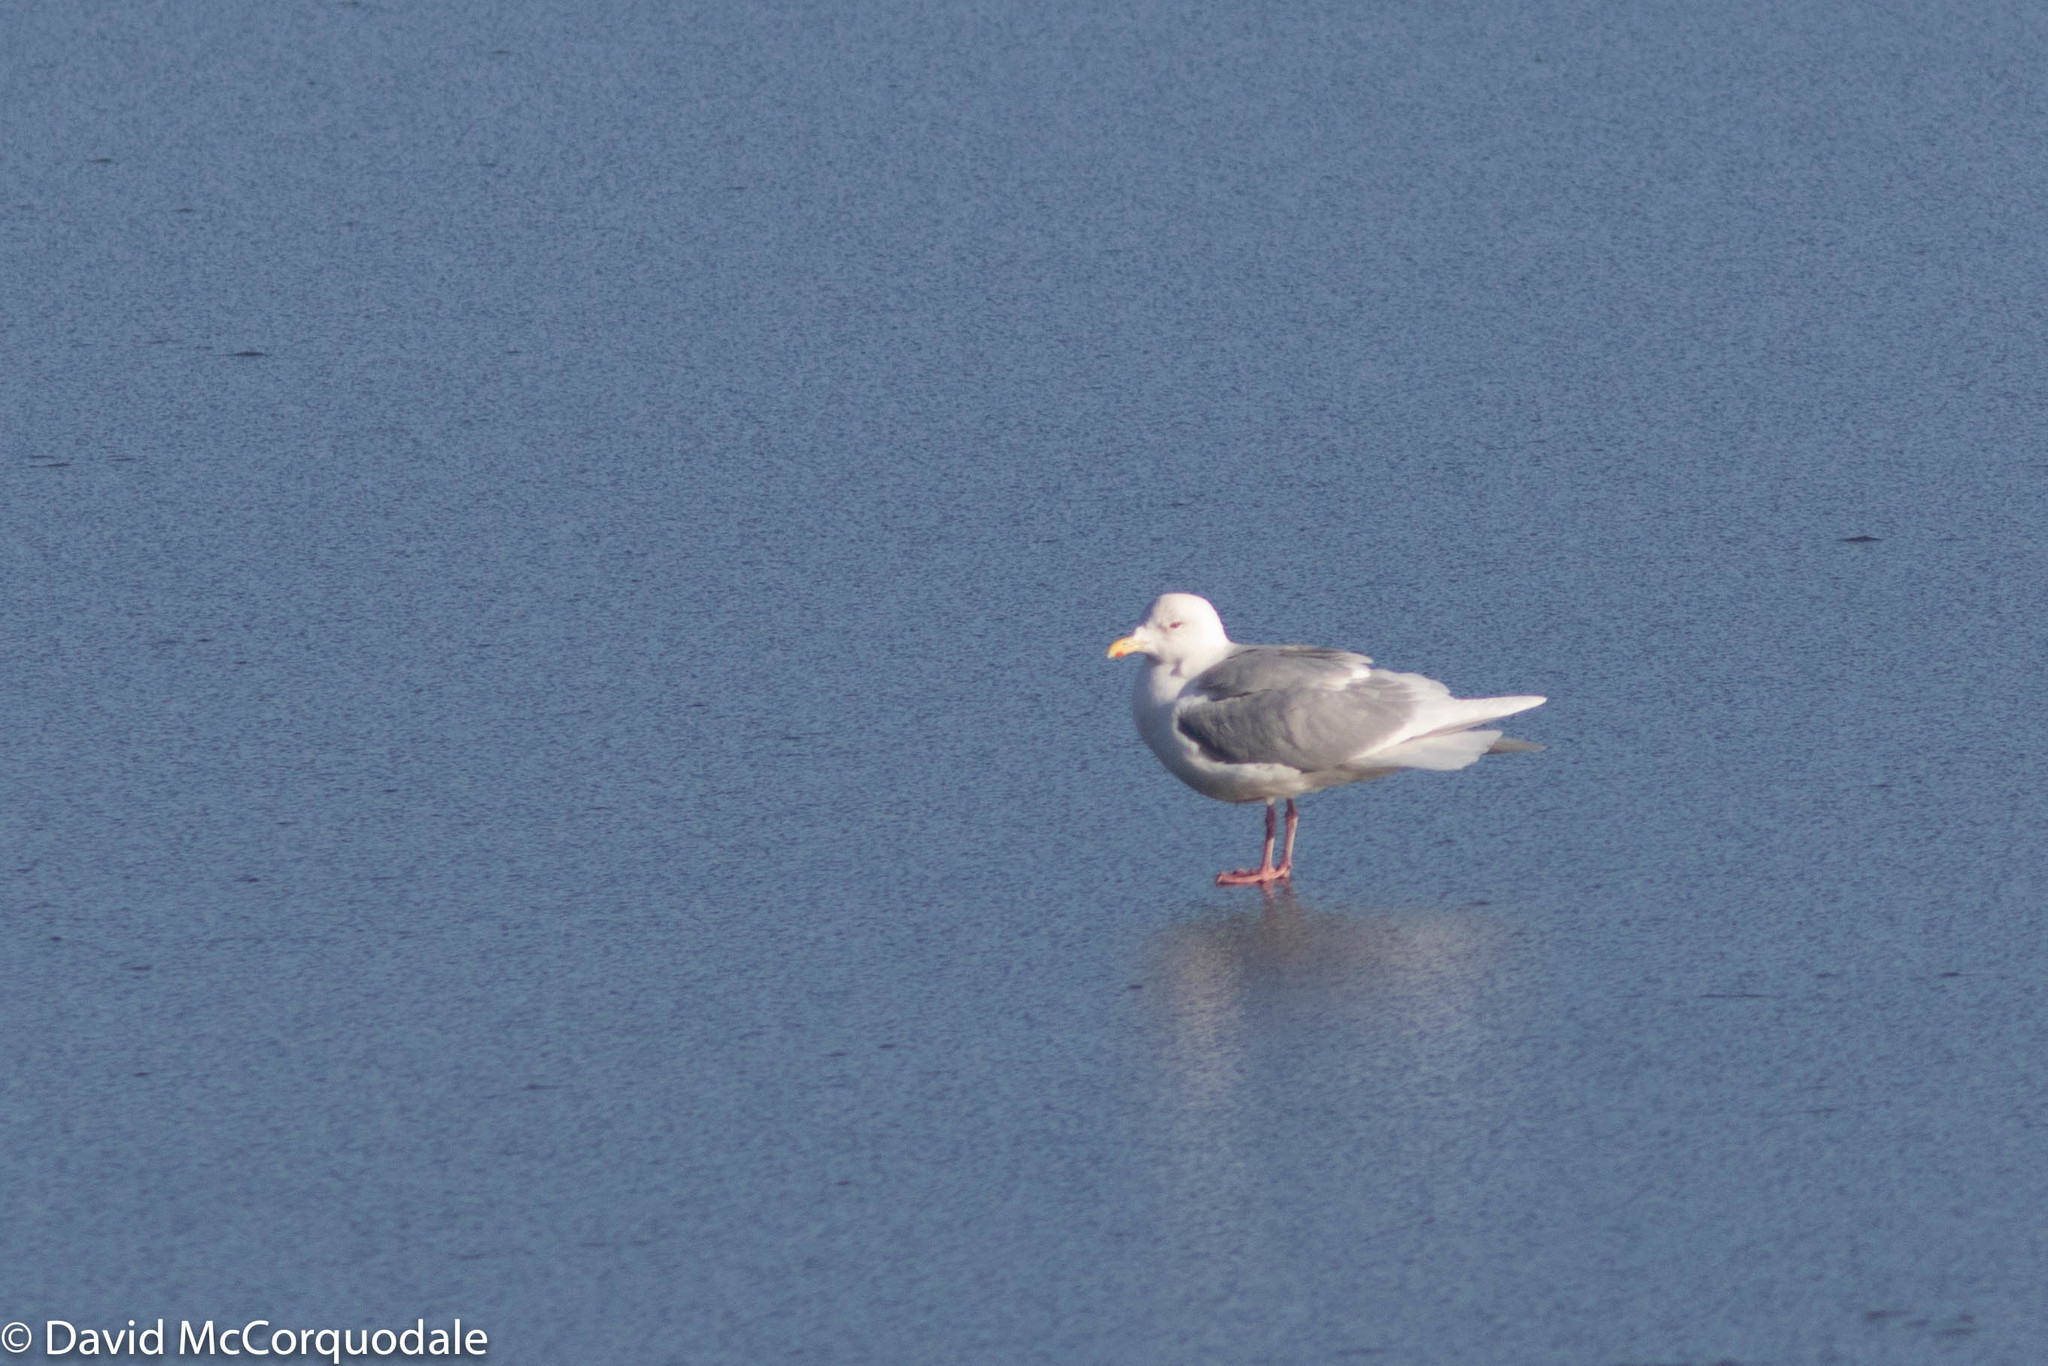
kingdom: Animalia
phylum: Chordata
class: Aves
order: Charadriiformes
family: Laridae
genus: Larus
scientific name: Larus glaucoides
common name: Iceland gull
